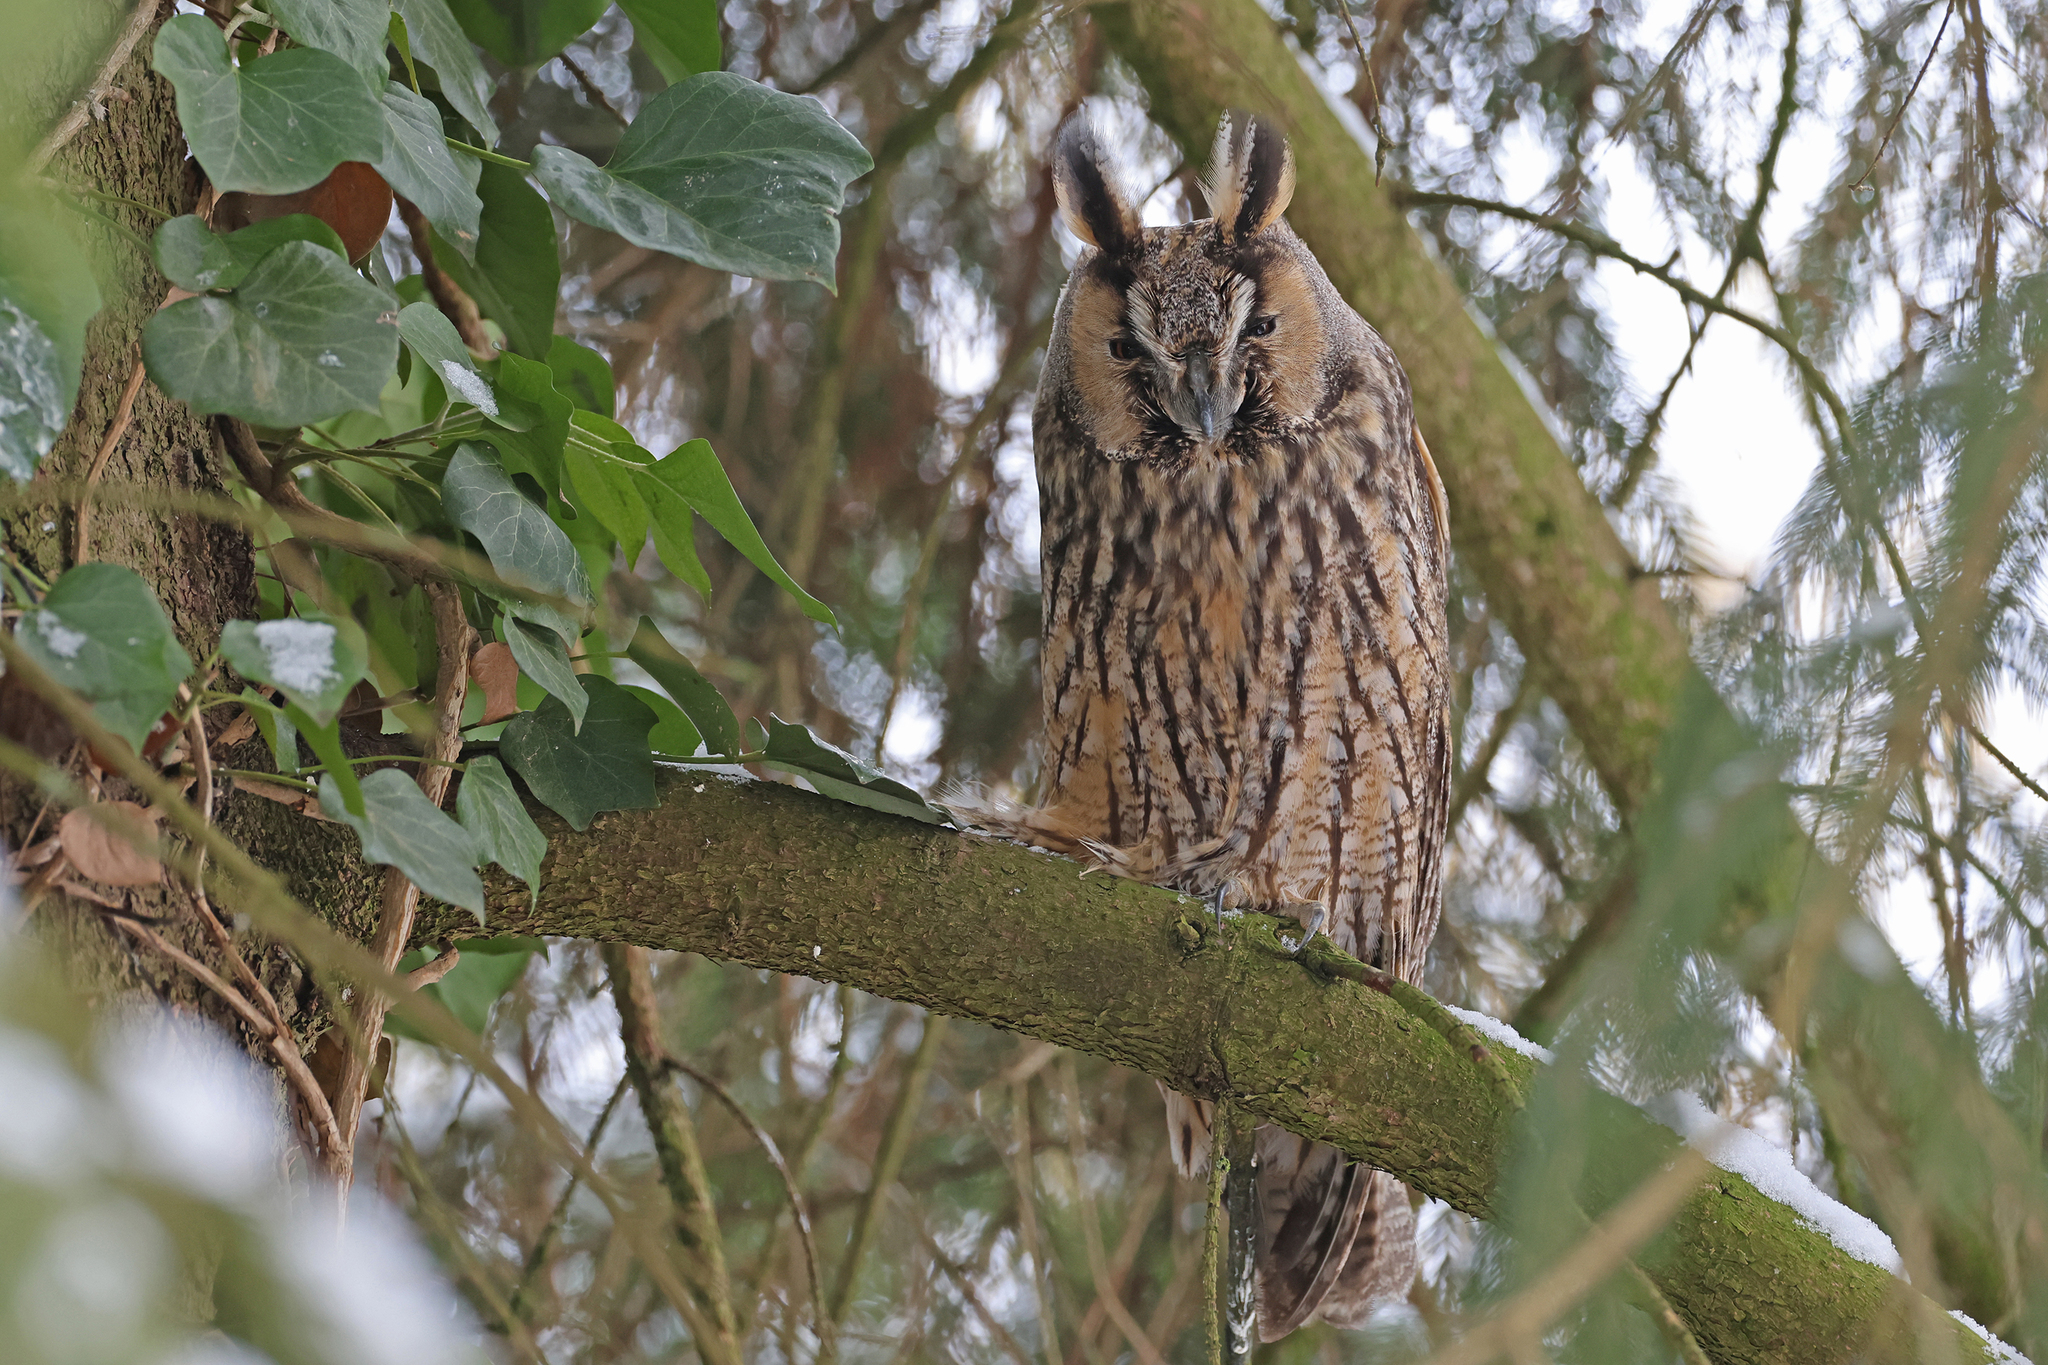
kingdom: Animalia
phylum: Chordata
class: Aves
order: Strigiformes
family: Strigidae
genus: Asio
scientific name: Asio otus
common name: Long-eared owl
